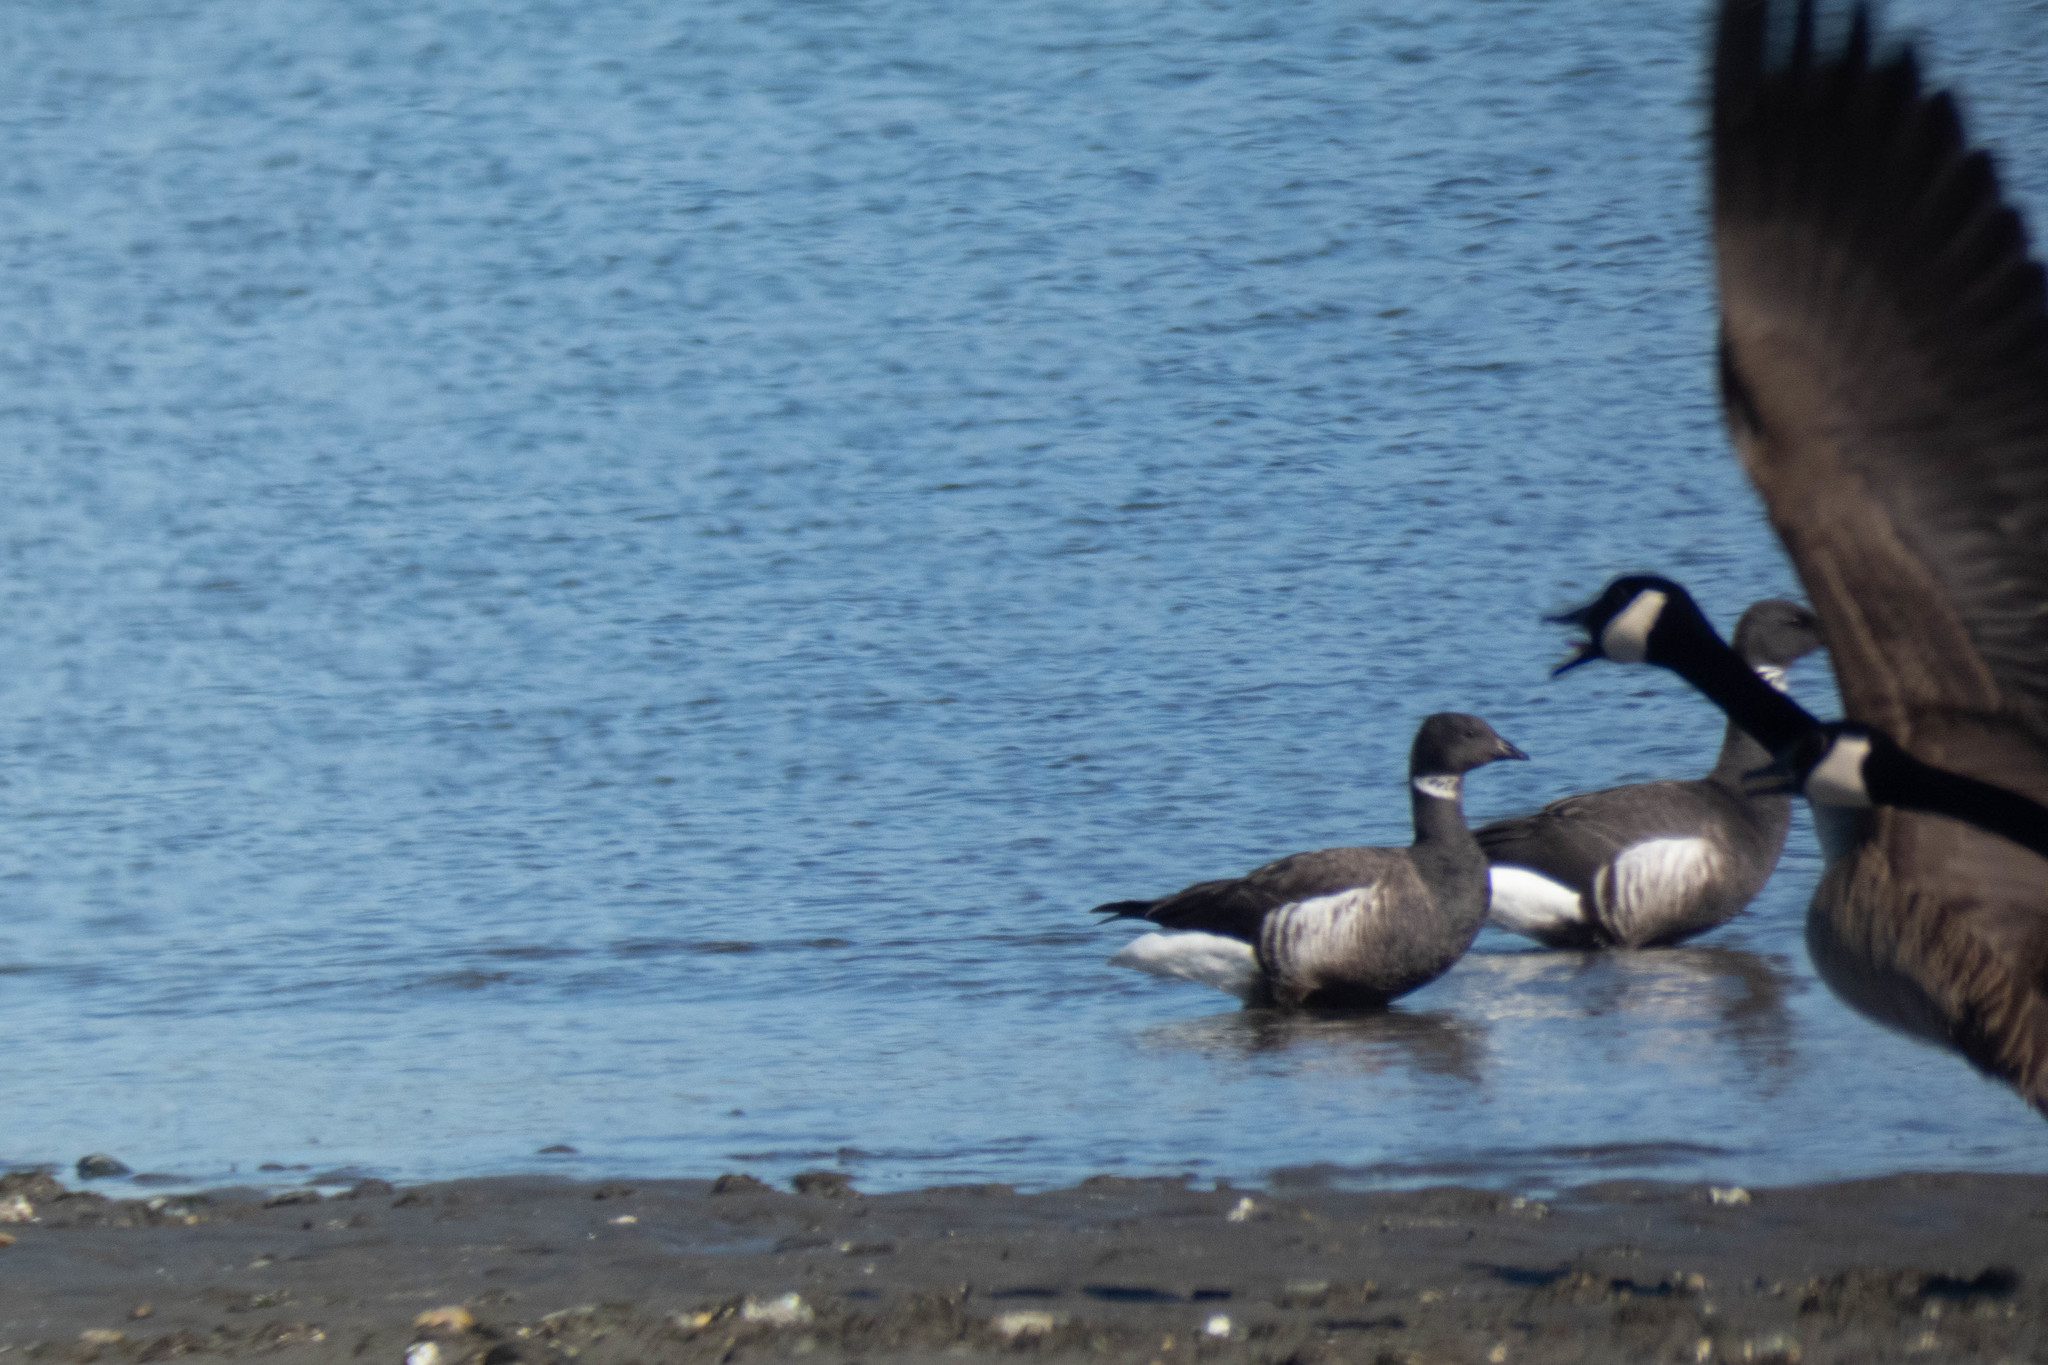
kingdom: Animalia
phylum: Chordata
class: Aves
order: Anseriformes
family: Anatidae
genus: Branta
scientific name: Branta bernicla
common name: Brant goose
